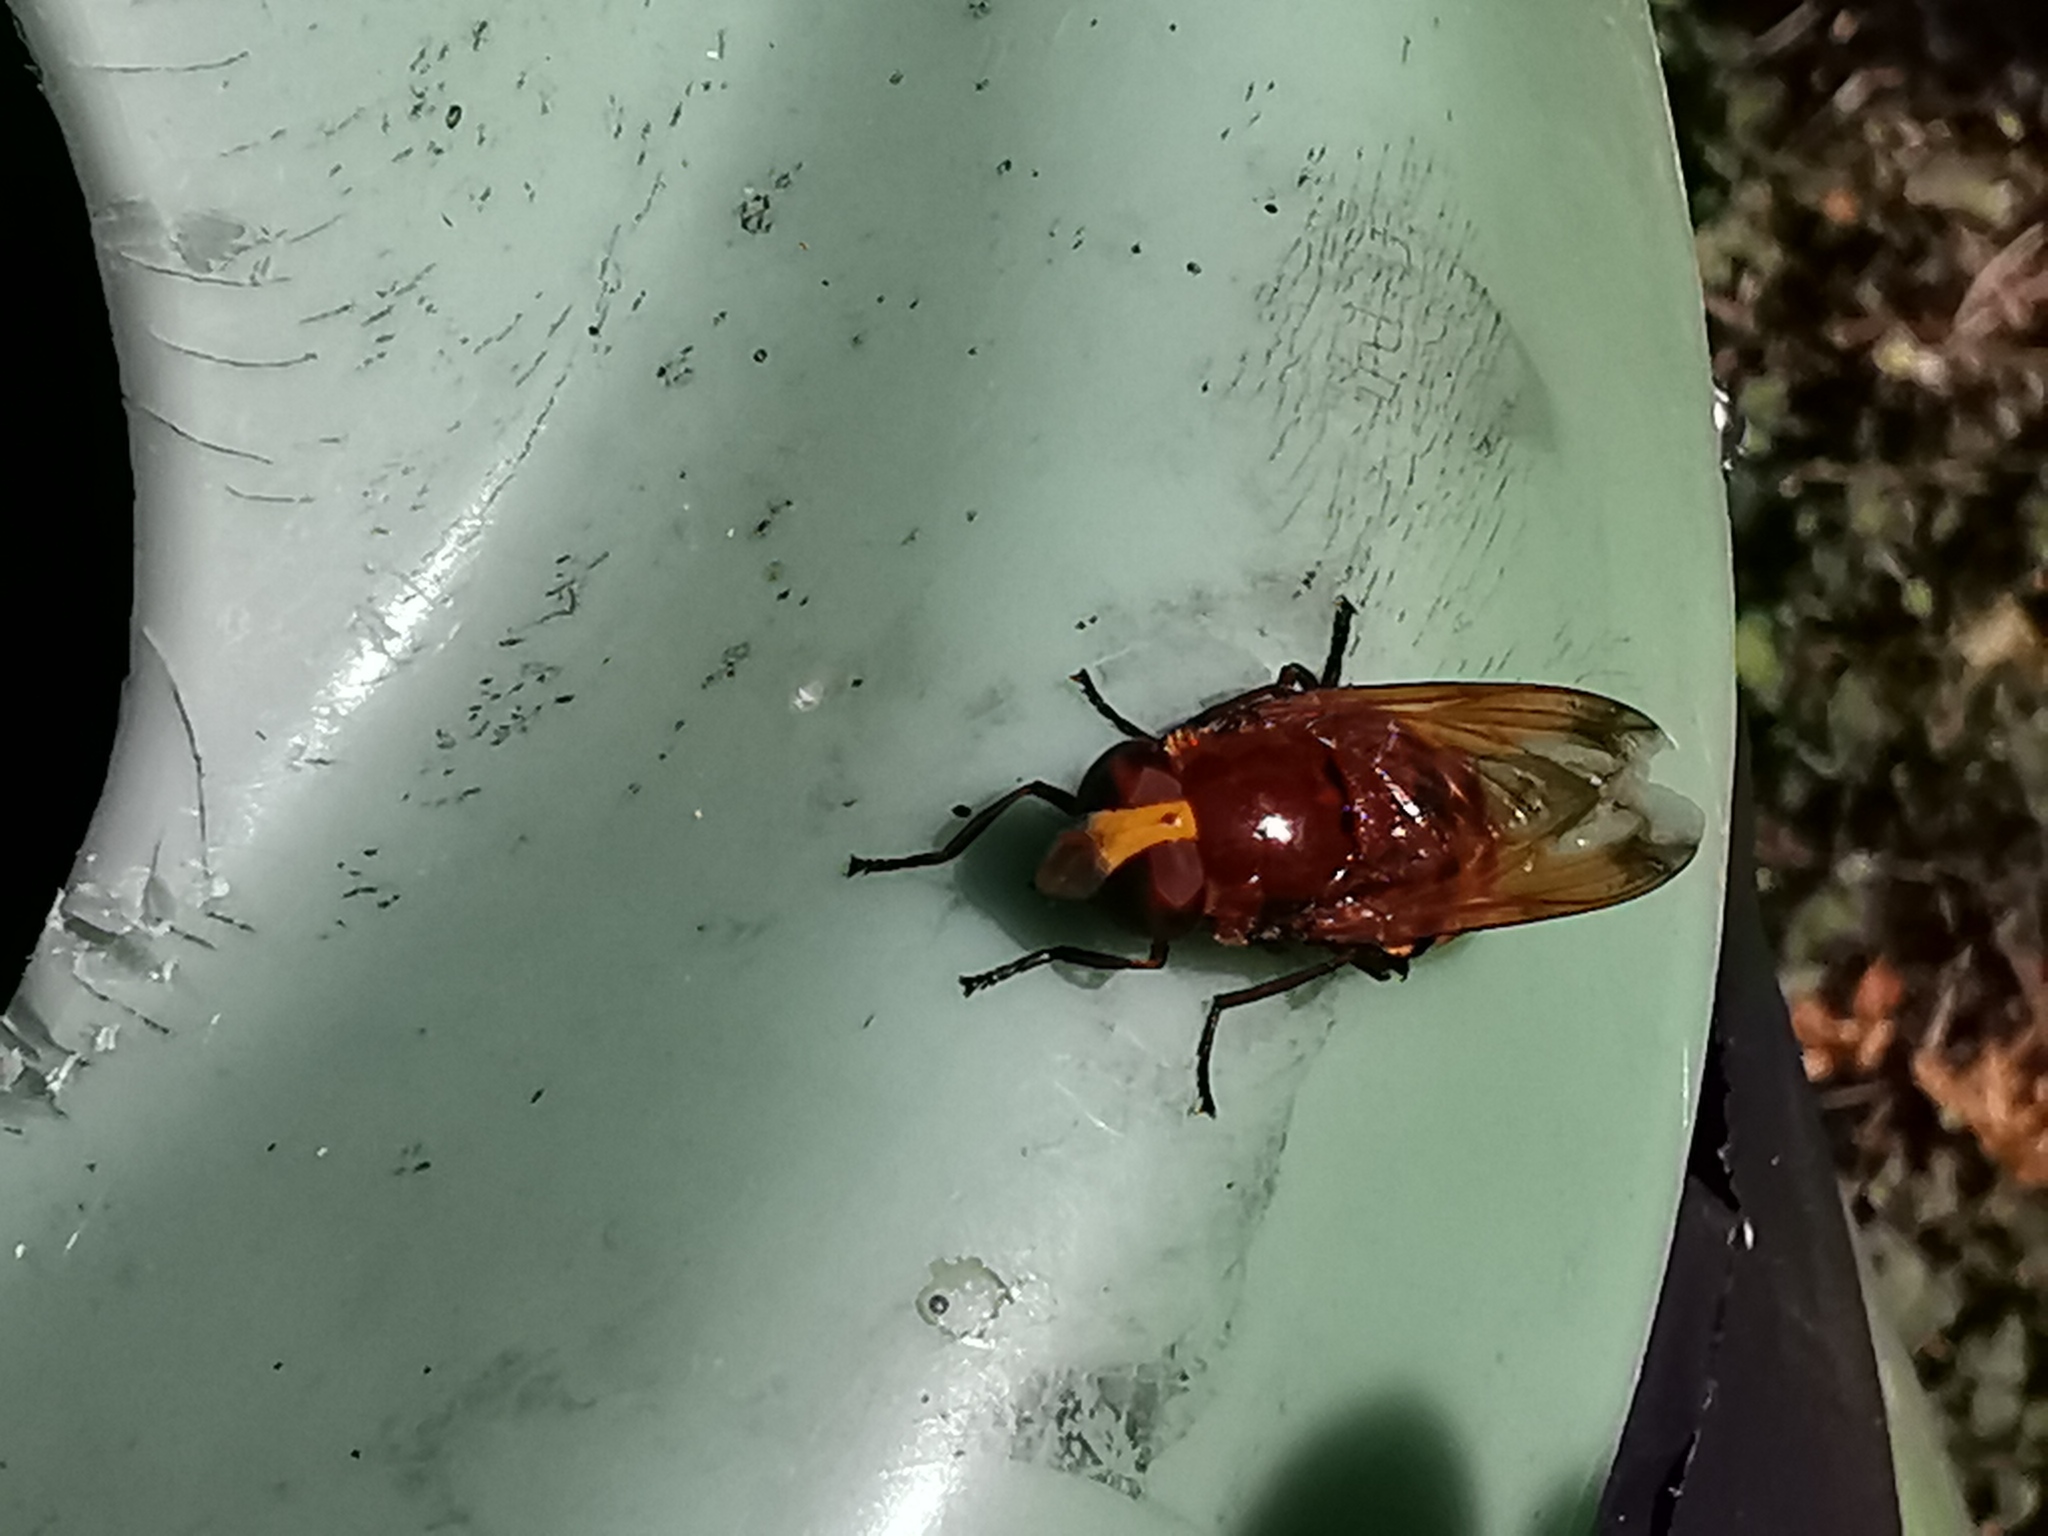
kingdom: Animalia
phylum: Arthropoda
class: Insecta
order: Diptera
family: Syrphidae
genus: Volucella
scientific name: Volucella zonaria
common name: Hornet hoverfly
